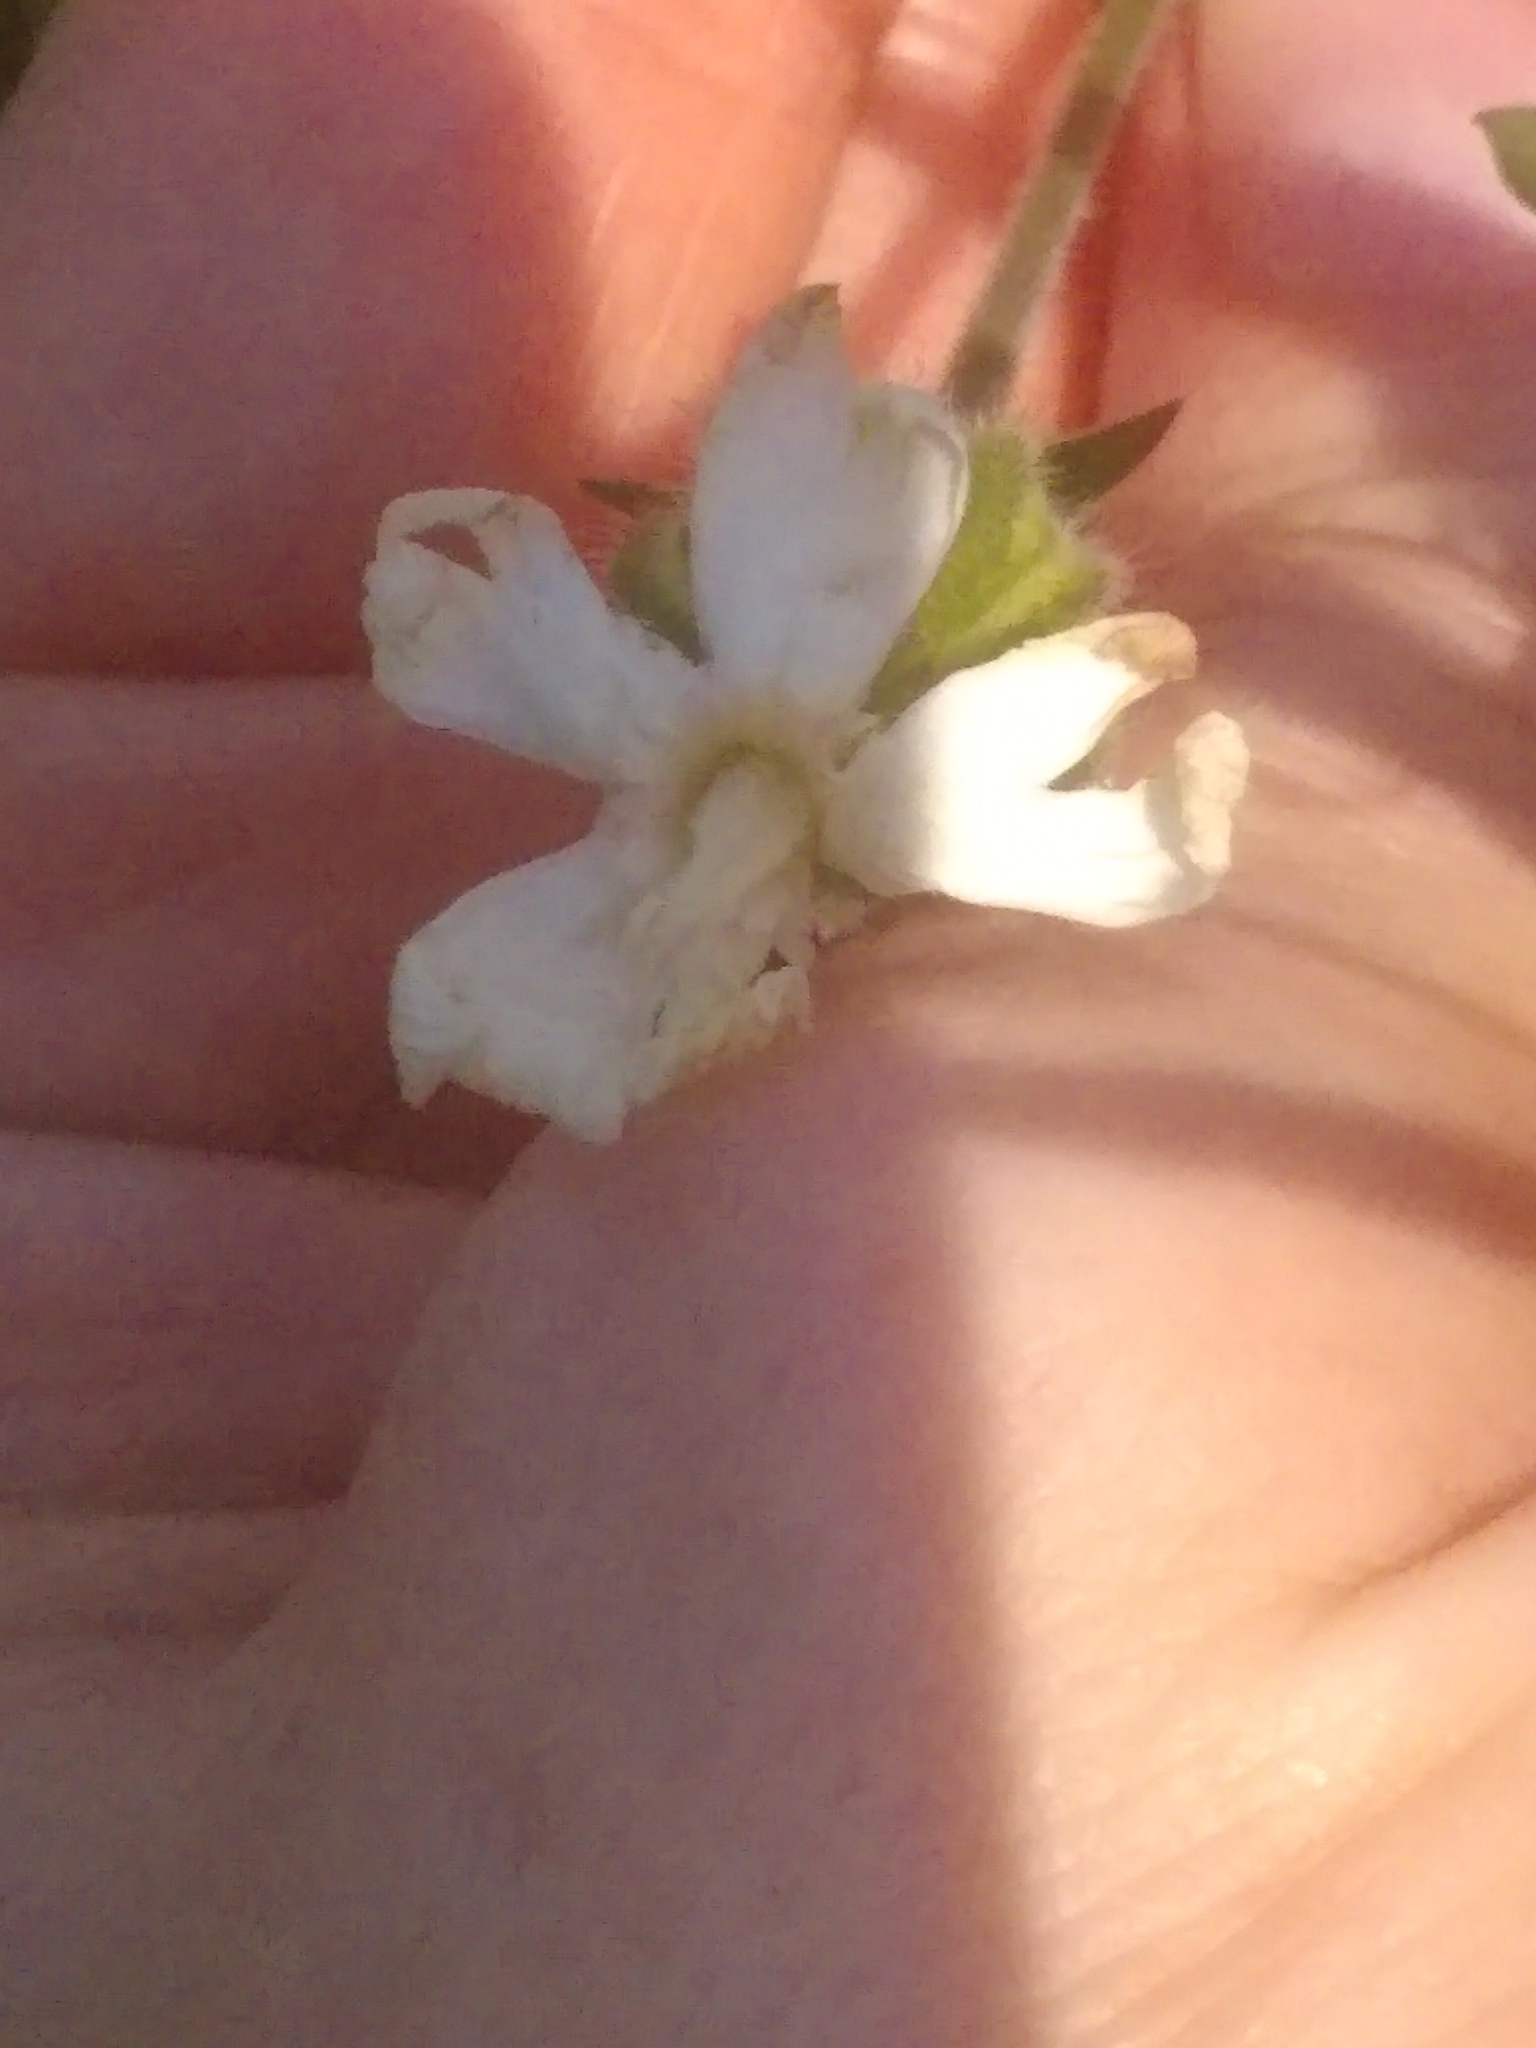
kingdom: Plantae
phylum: Tracheophyta
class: Magnoliopsida
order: Caryophyllales
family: Caryophyllaceae
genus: Silene
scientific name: Silene latifolia
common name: White campion
